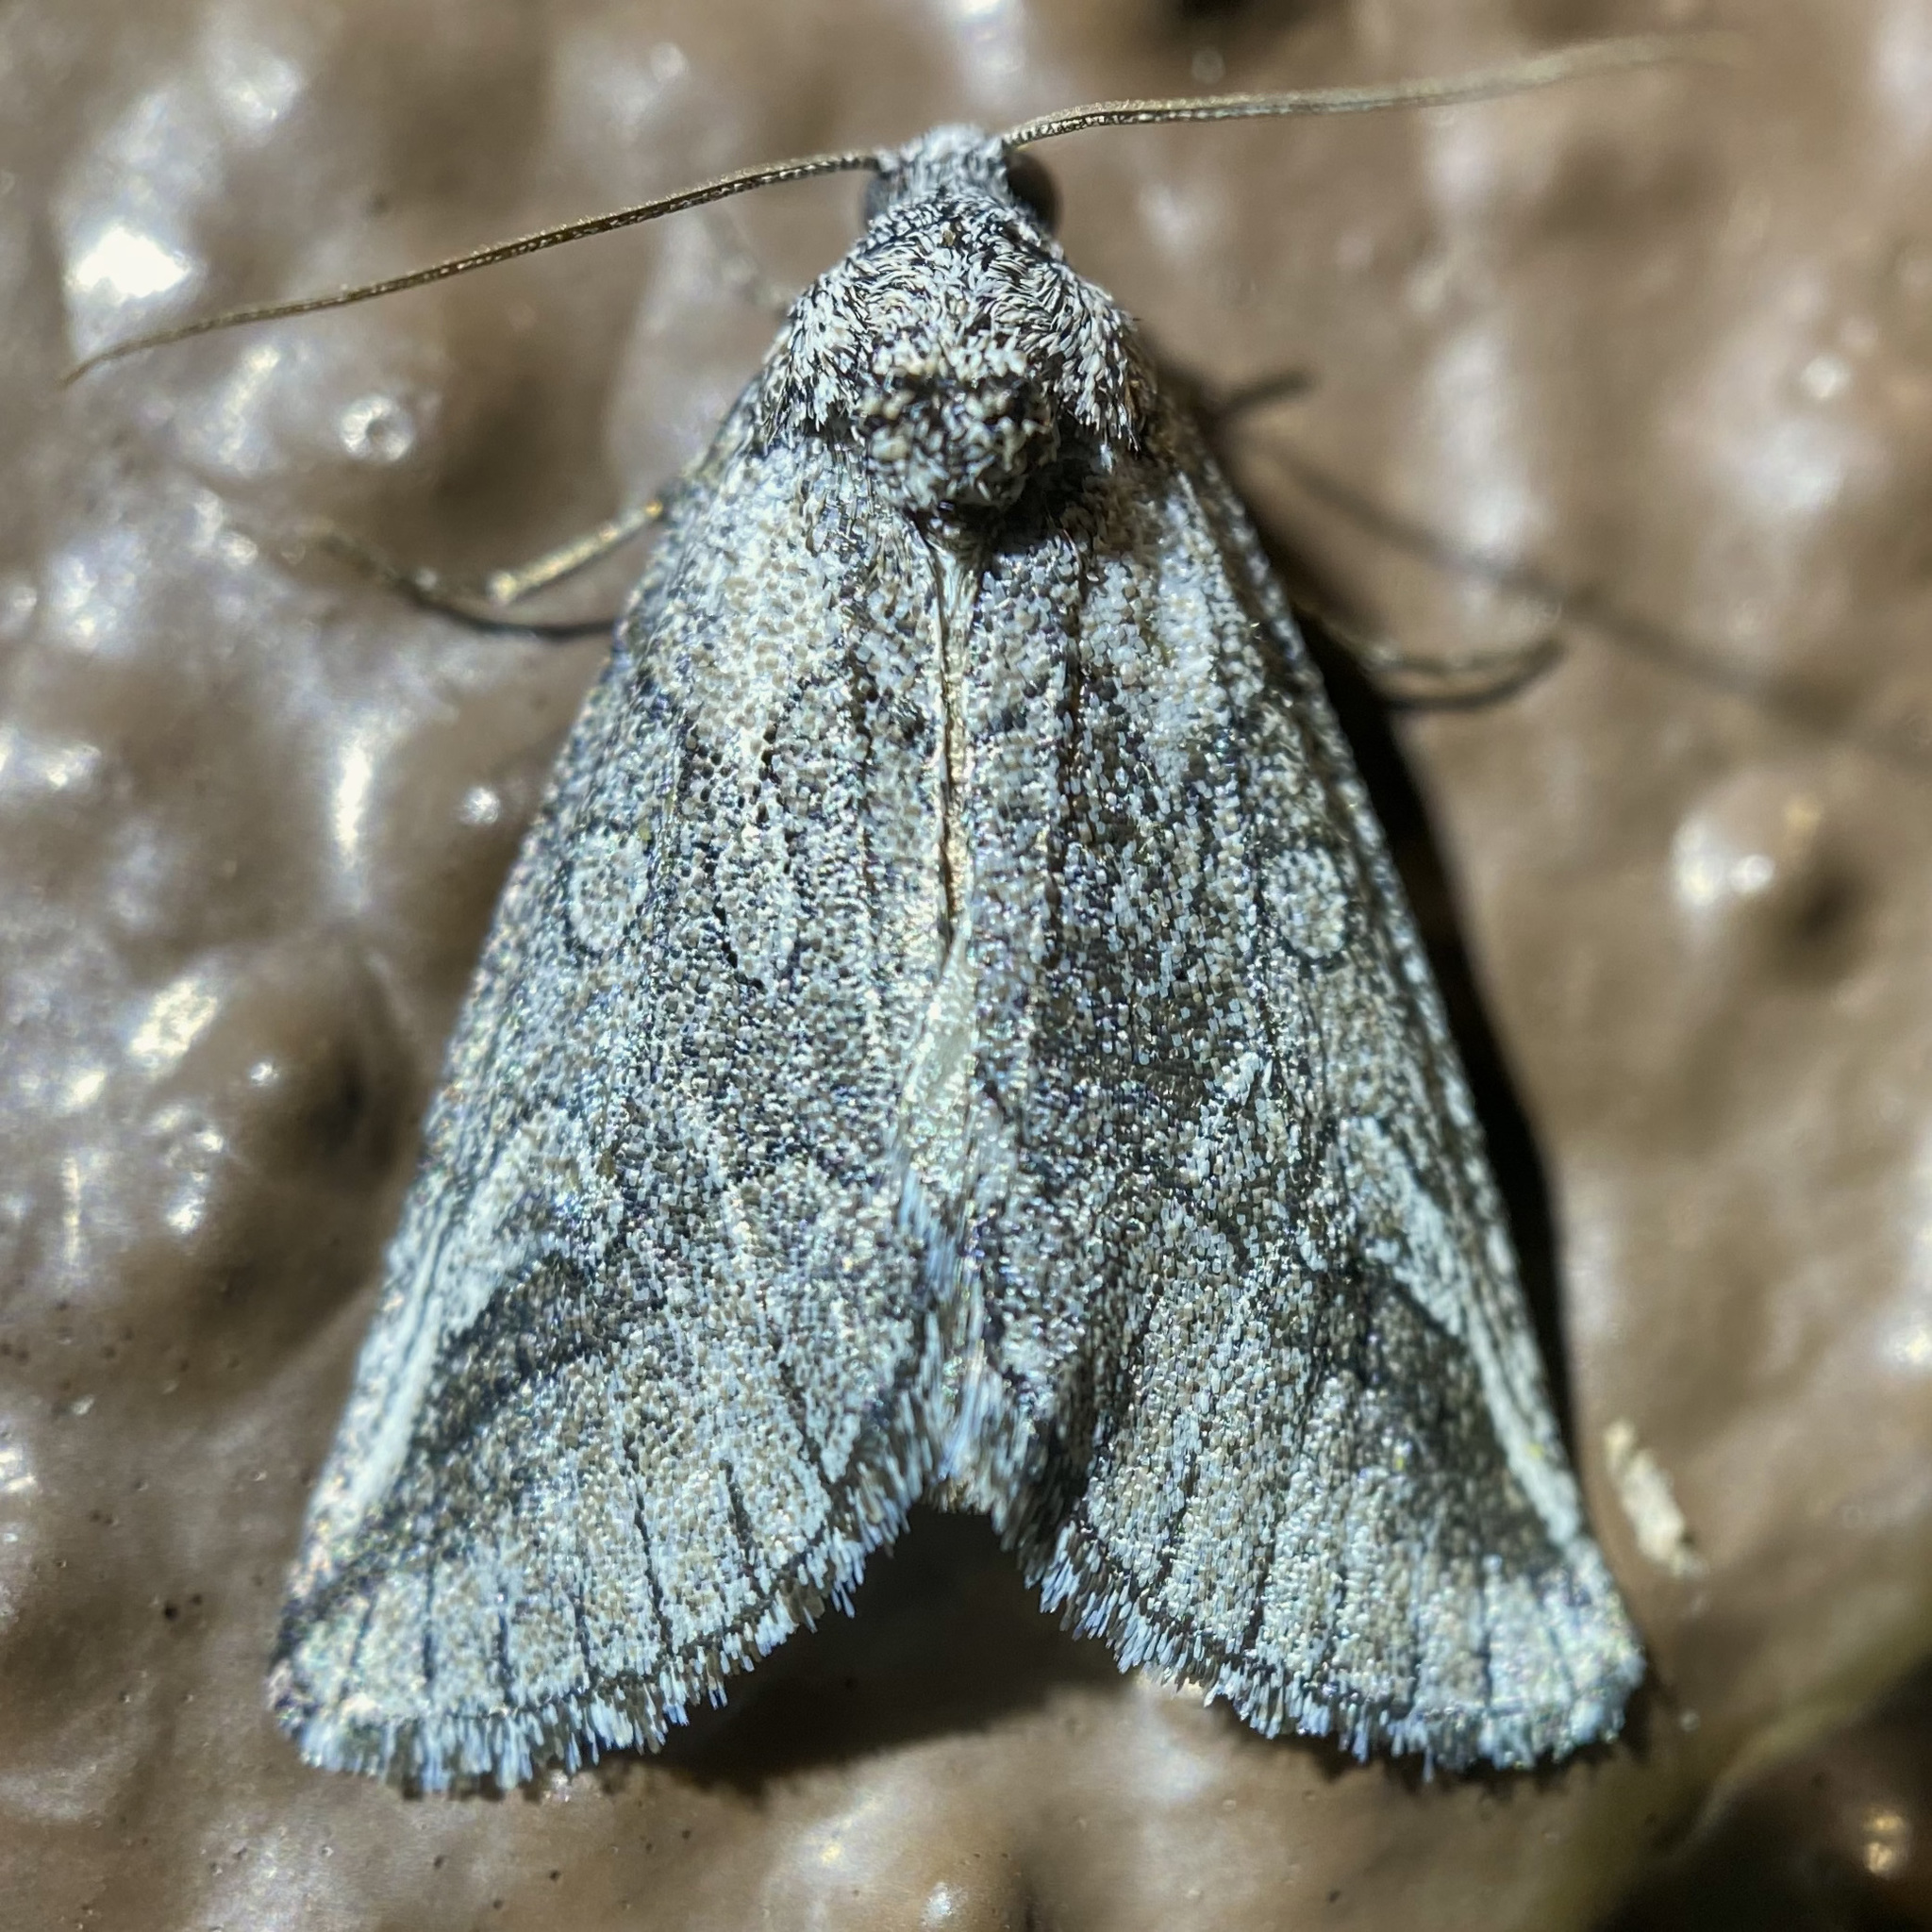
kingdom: Animalia
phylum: Arthropoda
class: Insecta
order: Lepidoptera
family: Noctuidae
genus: Oxycnemis
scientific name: Oxycnemis fusimacula
